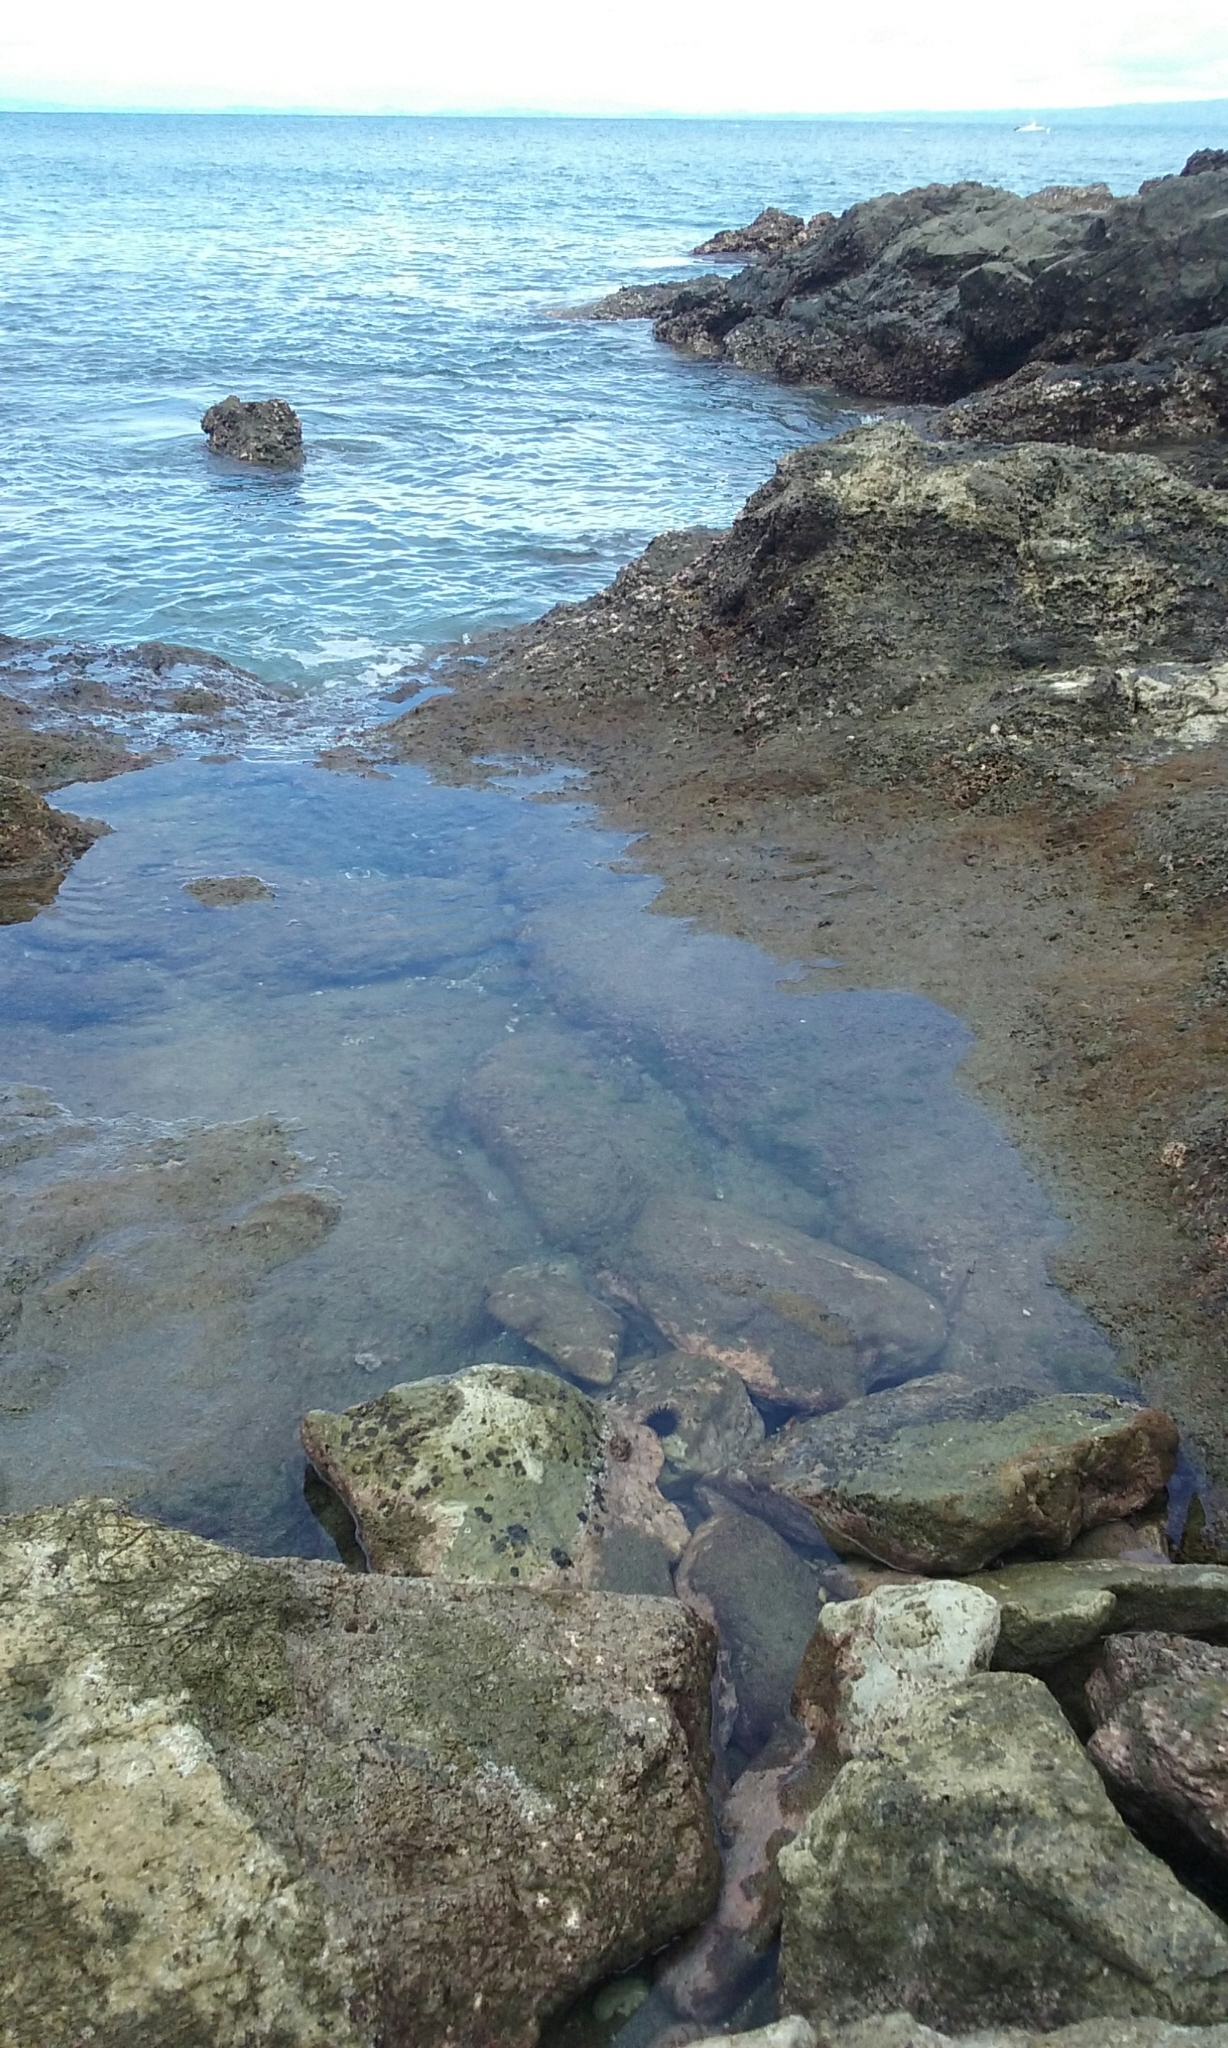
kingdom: Animalia
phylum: Arthropoda
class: Malacostraca
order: Decapoda
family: Grapsidae
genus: Grapsus
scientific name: Grapsus grapsus
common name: Sally lightfoot
